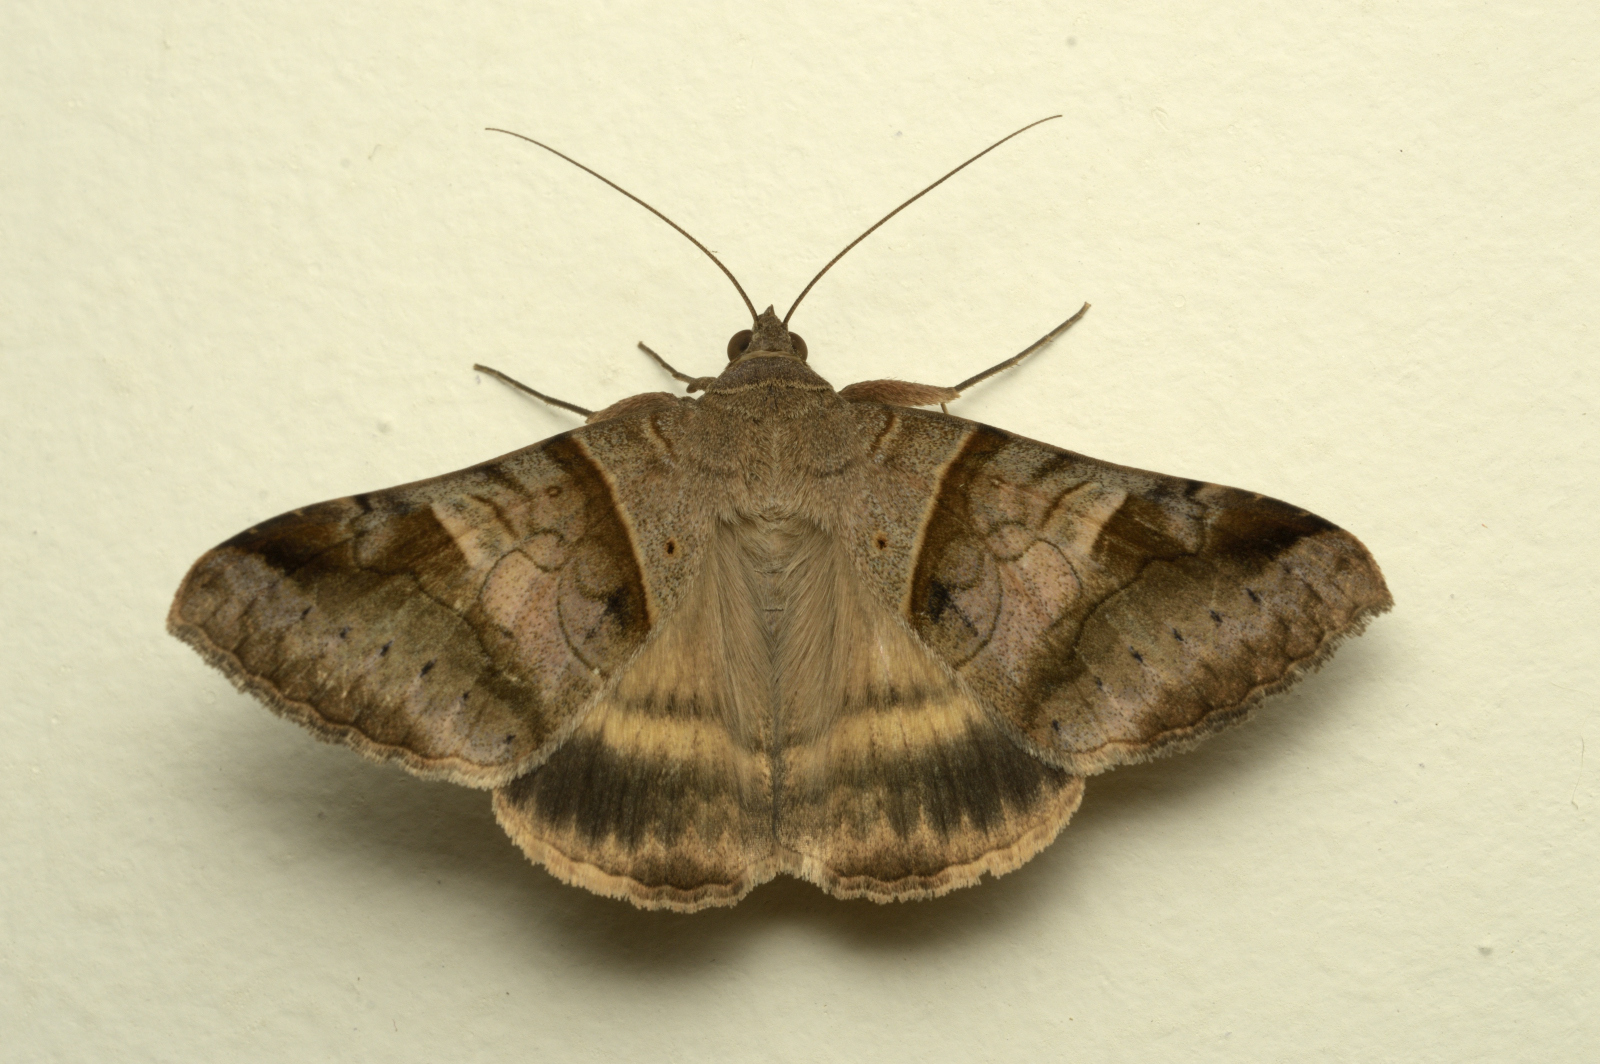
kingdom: Animalia
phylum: Arthropoda
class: Insecta
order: Lepidoptera
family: Erebidae
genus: Mocis
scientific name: Mocis undata
